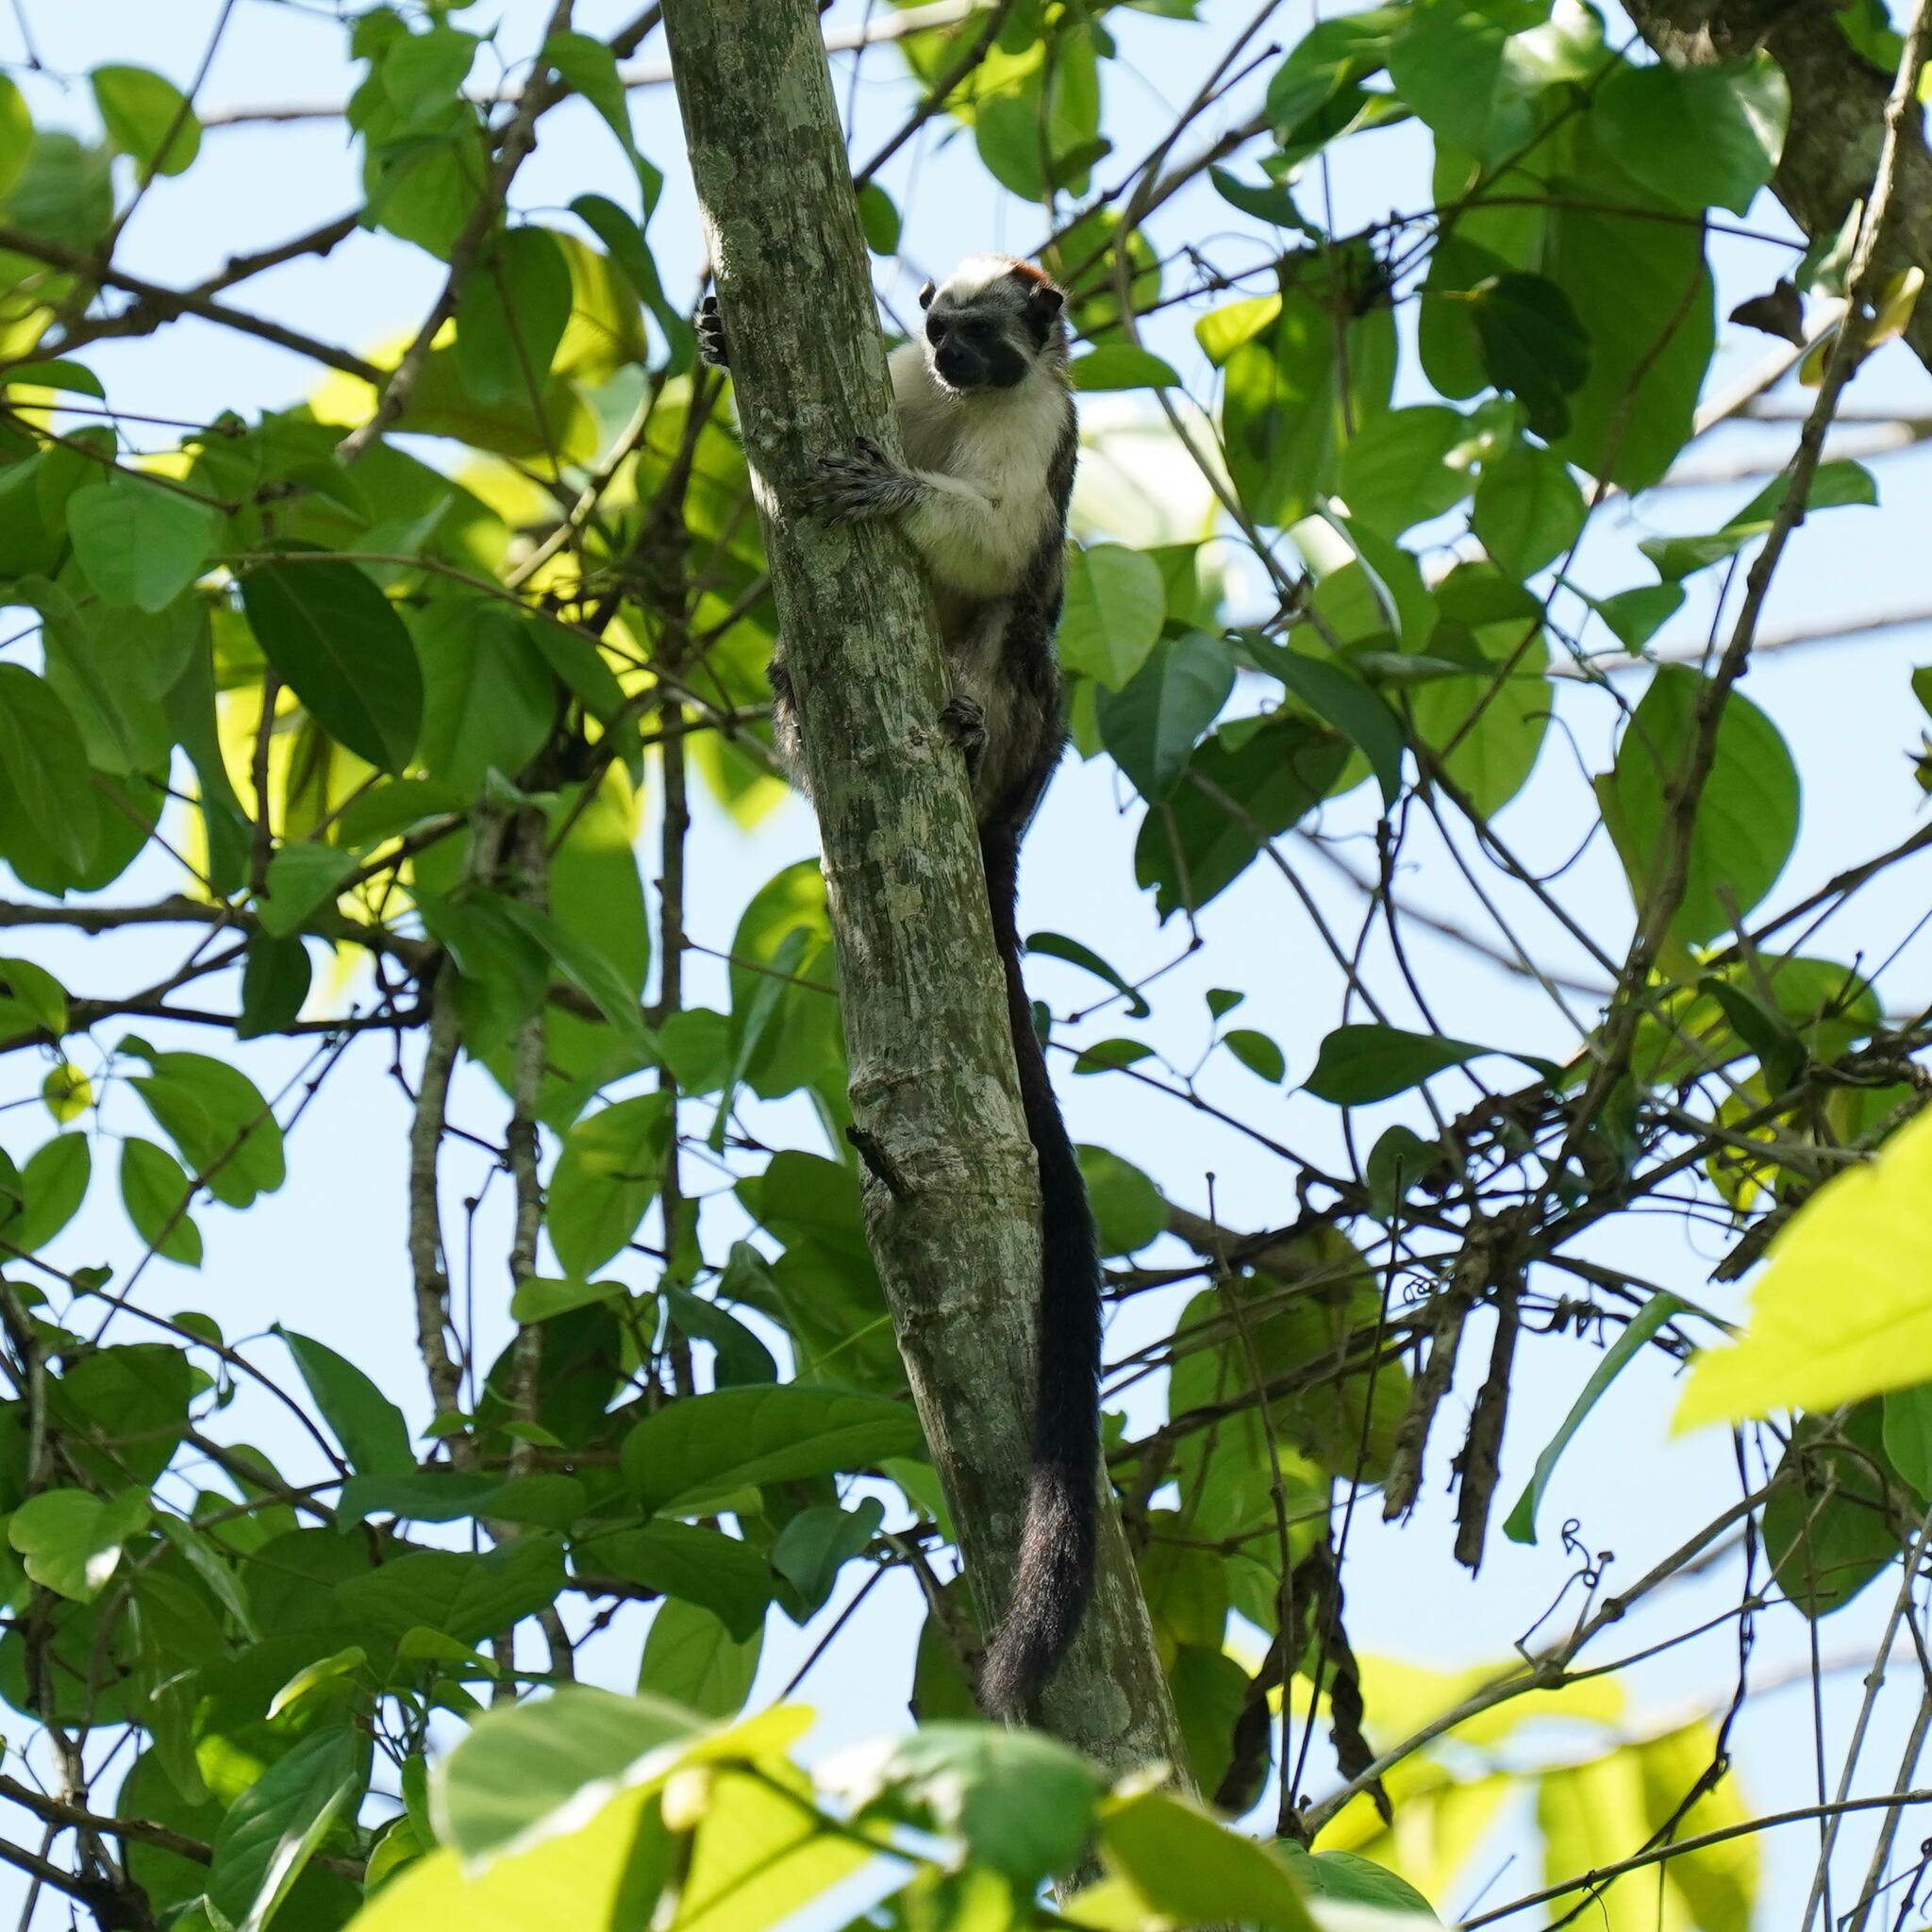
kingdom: Animalia
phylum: Chordata
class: Mammalia
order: Primates
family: Callitrichidae
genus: Saguinus
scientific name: Saguinus geoffroyi
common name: Geoffroy s tamarin
